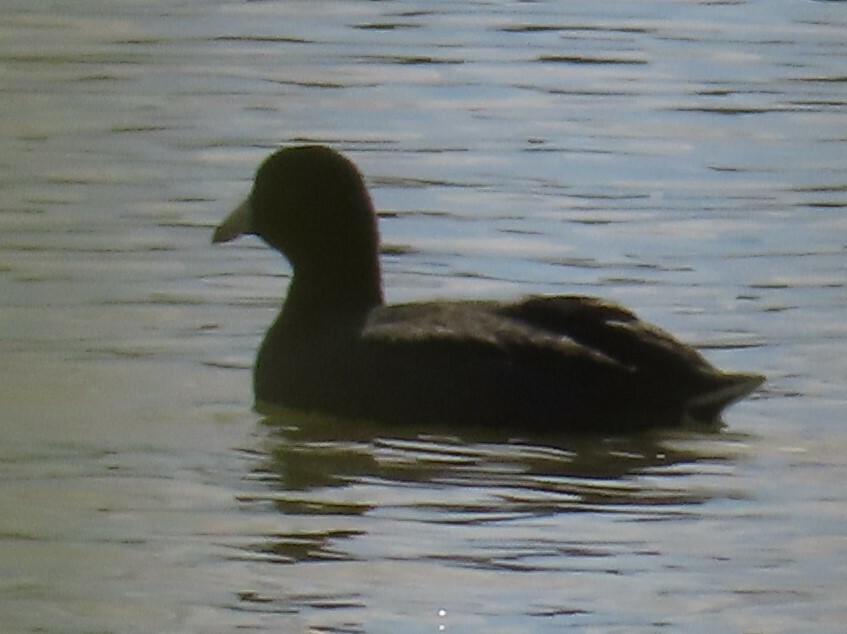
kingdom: Animalia
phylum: Chordata
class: Aves
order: Gruiformes
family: Rallidae
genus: Fulica
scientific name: Fulica americana
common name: American coot
